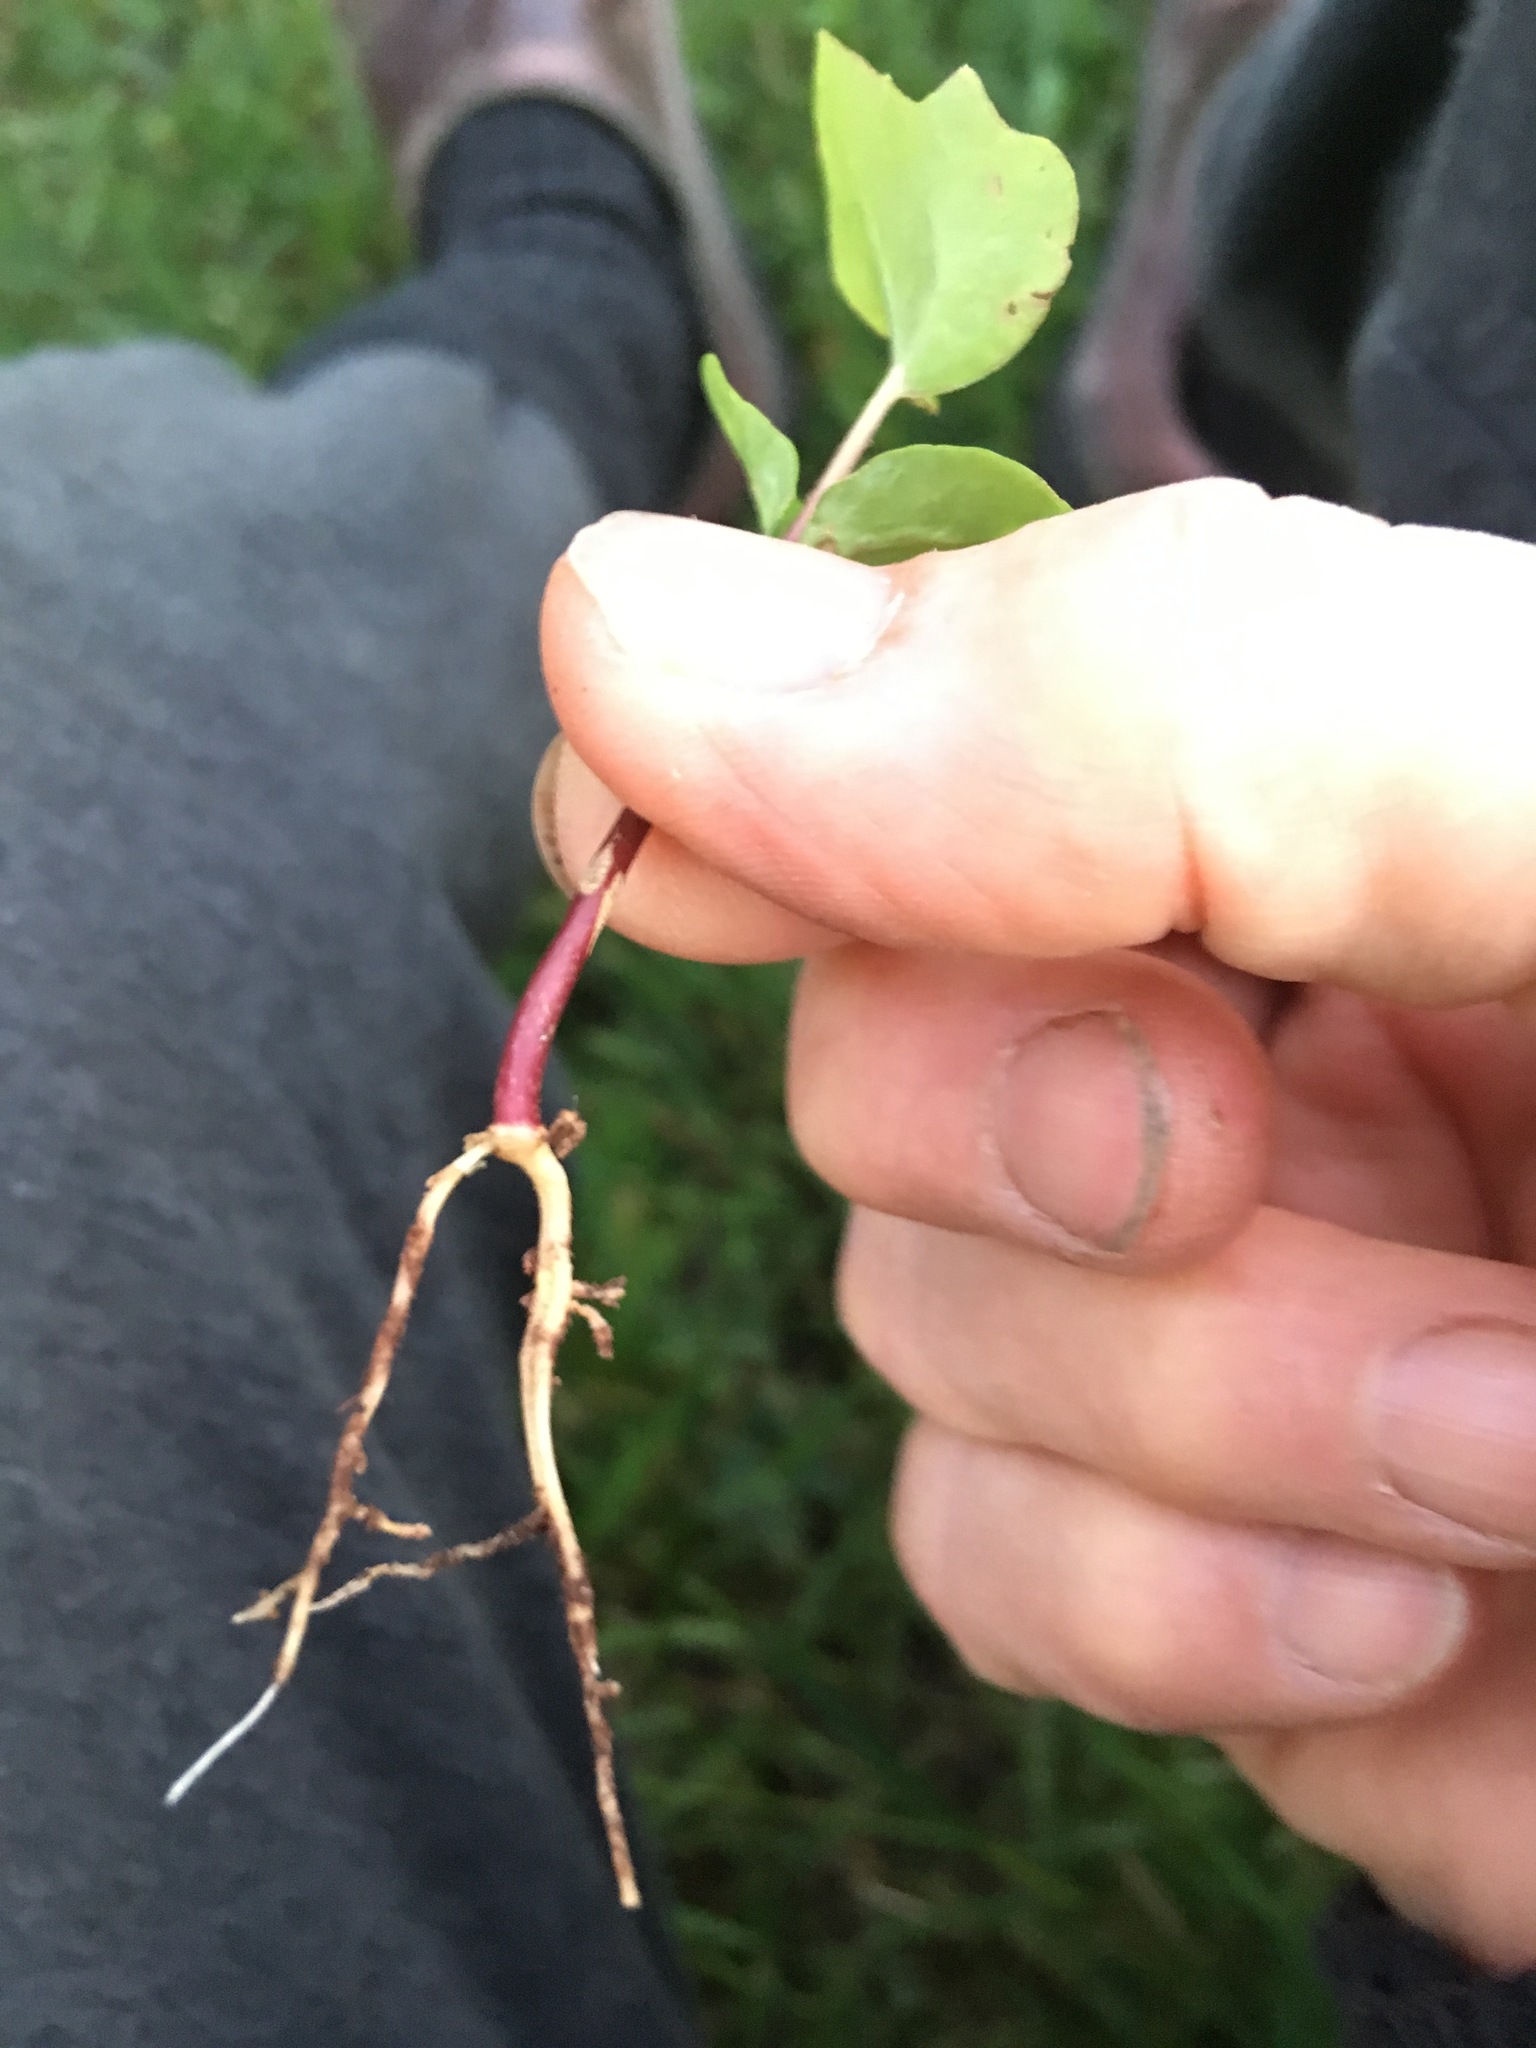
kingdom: Plantae
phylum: Tracheophyta
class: Magnoliopsida
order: Apiales
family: Araliaceae
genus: Hedera
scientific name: Hedera helix
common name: Ivy
